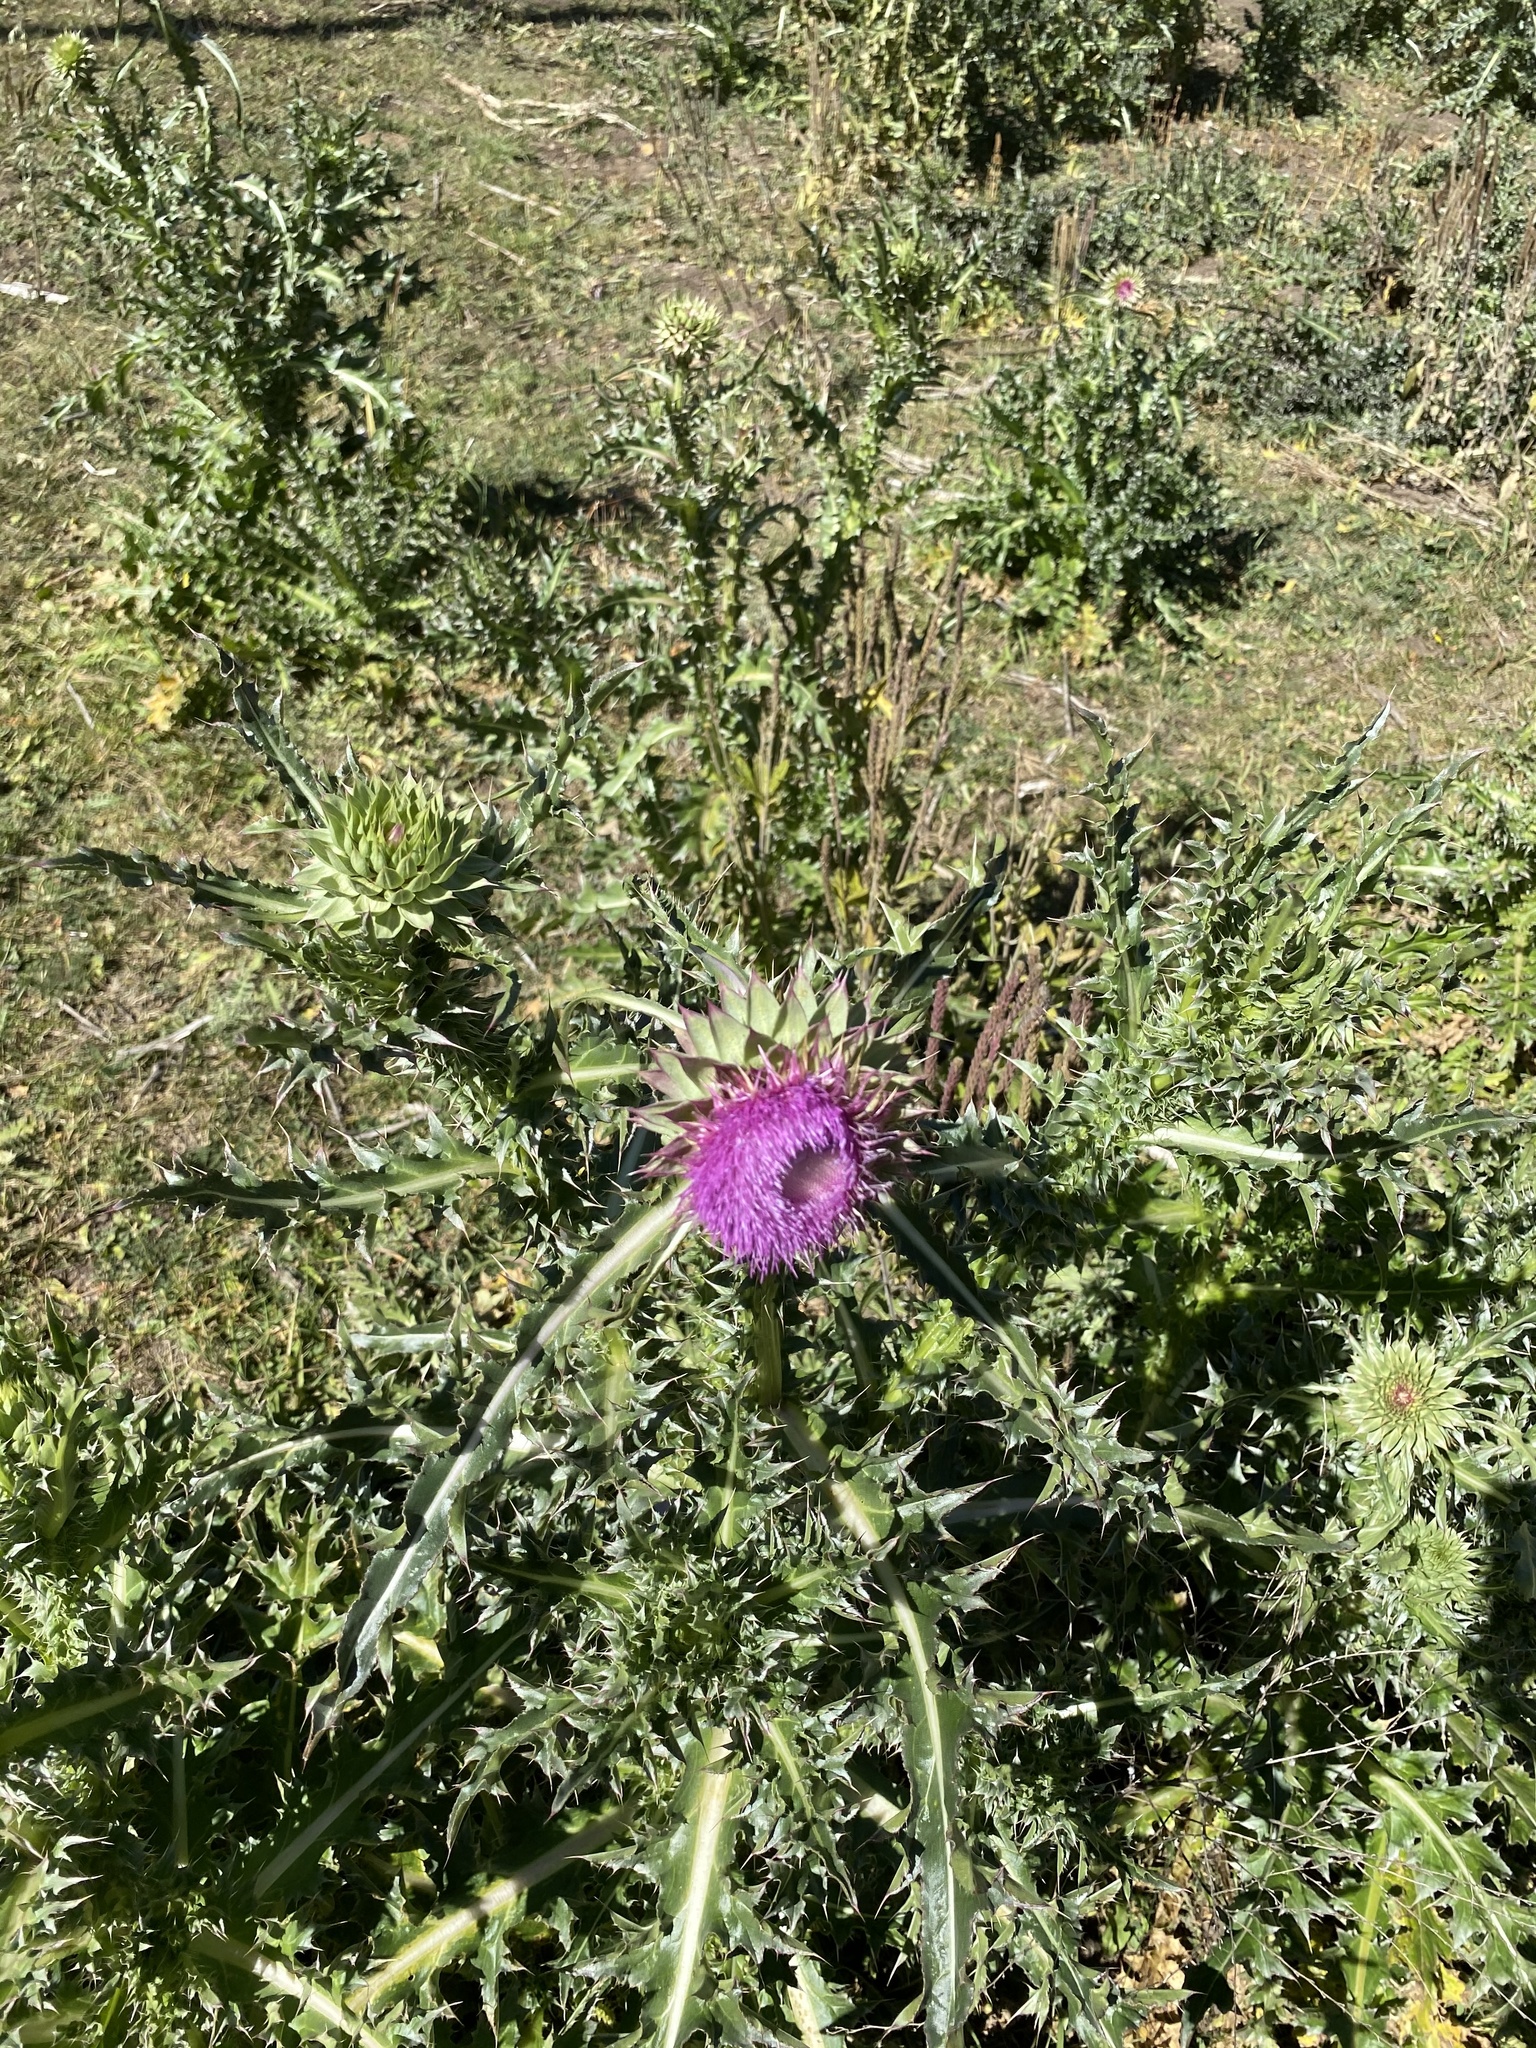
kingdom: Plantae
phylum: Tracheophyta
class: Magnoliopsida
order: Asterales
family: Asteraceae
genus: Carduus
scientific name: Carduus nutans
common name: Musk thistle
